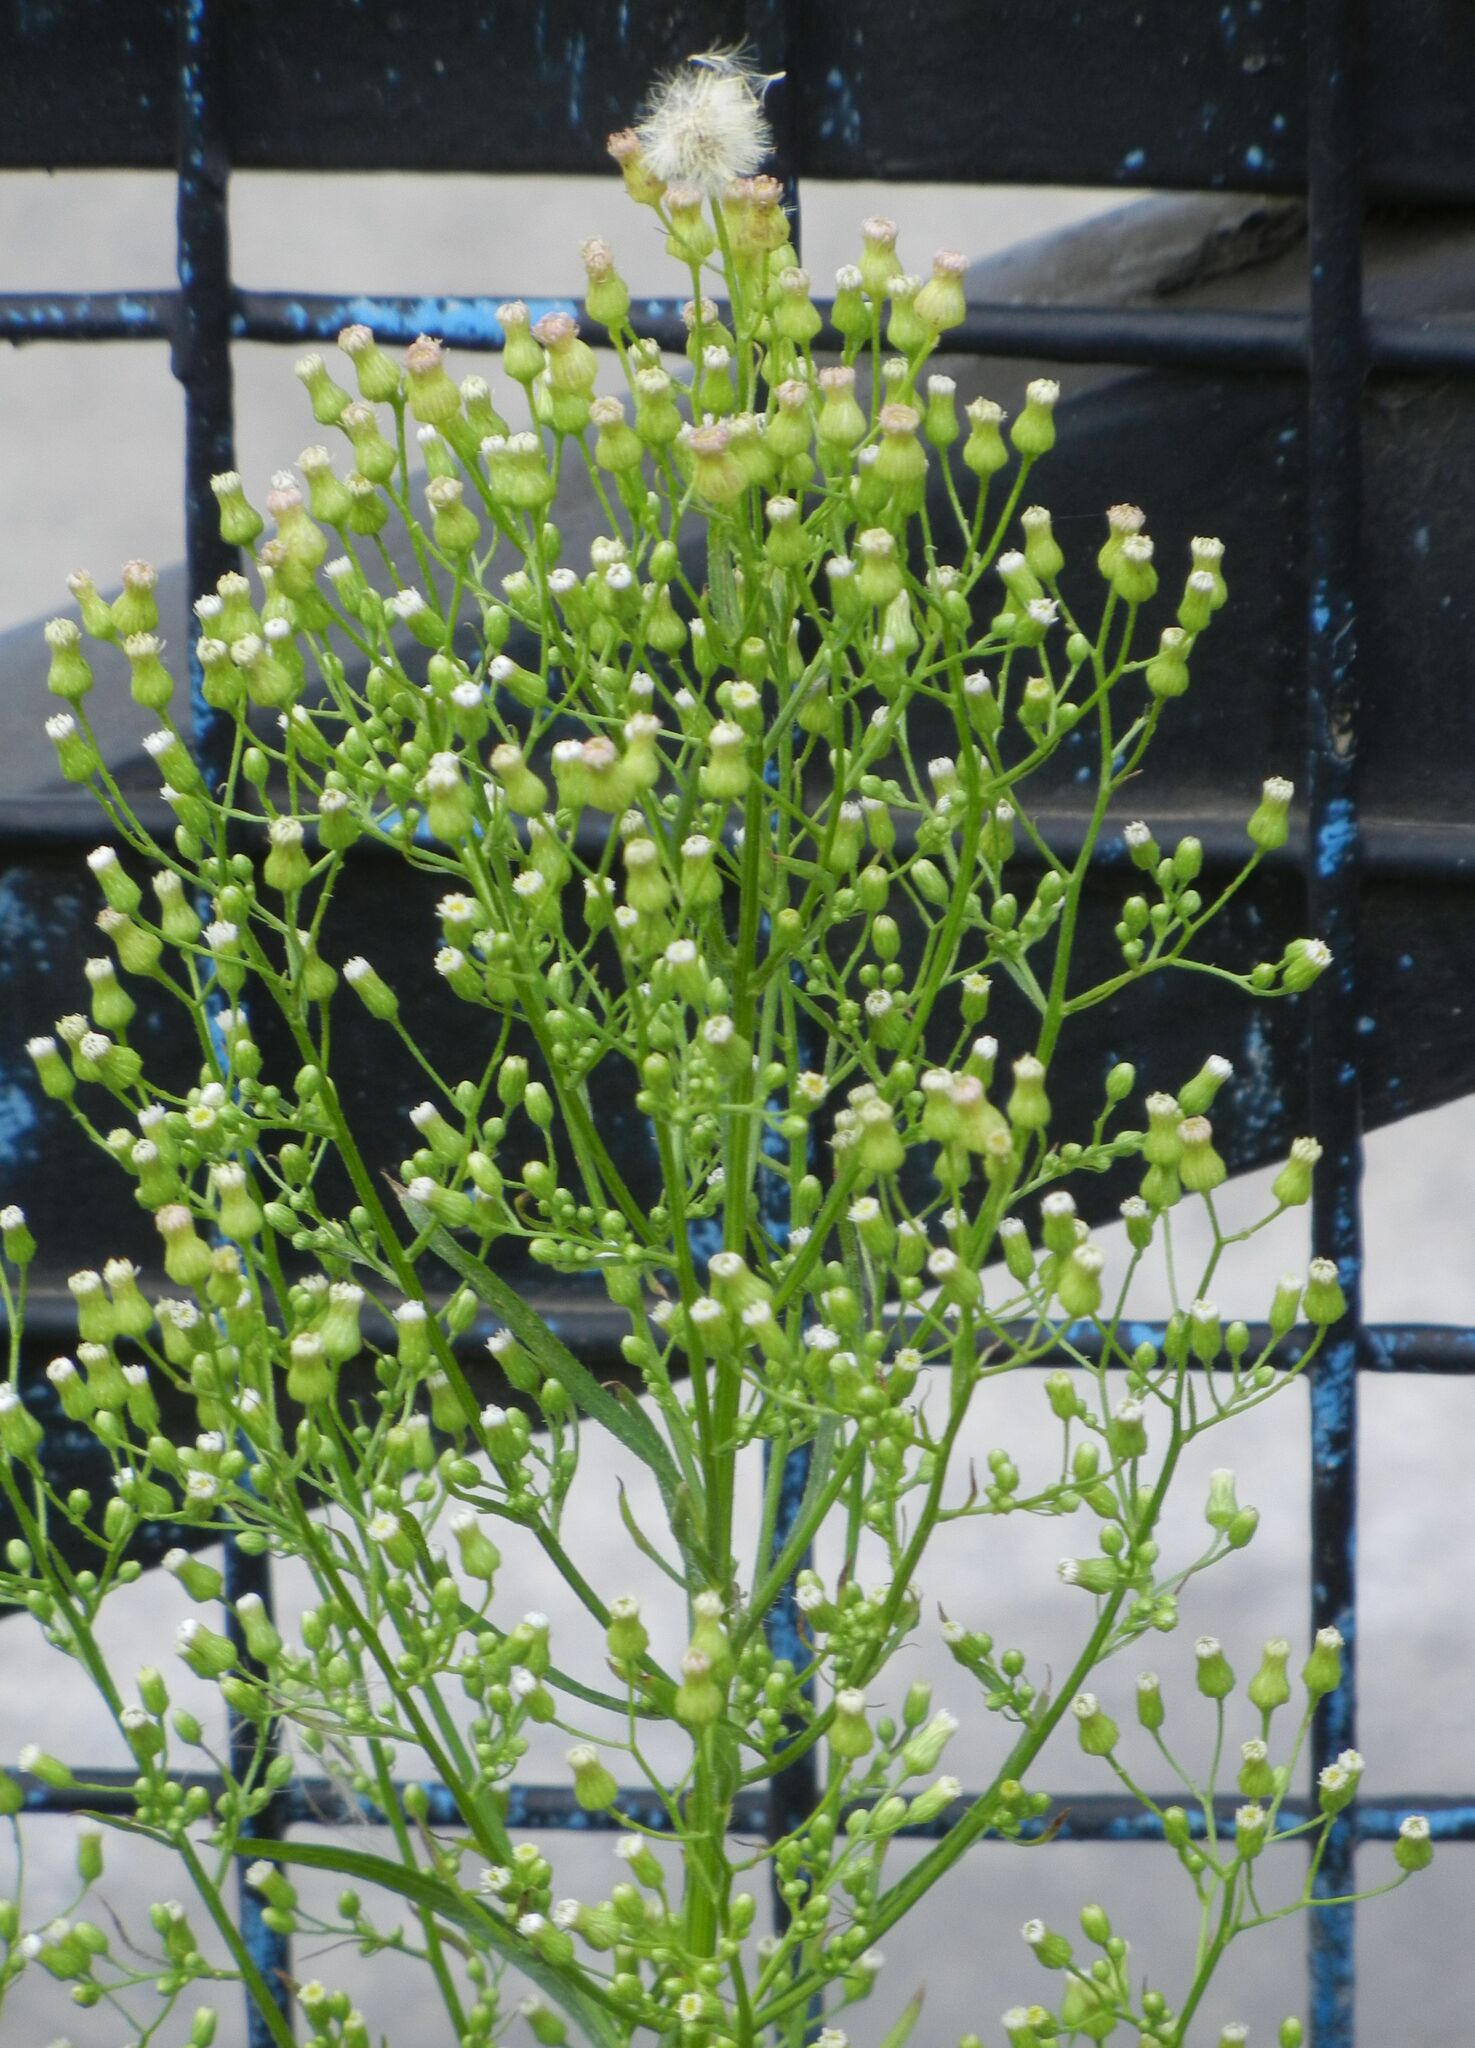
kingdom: Plantae
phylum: Tracheophyta
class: Magnoliopsida
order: Asterales
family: Asteraceae
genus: Erigeron
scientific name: Erigeron canadensis
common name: Canadian fleabane
